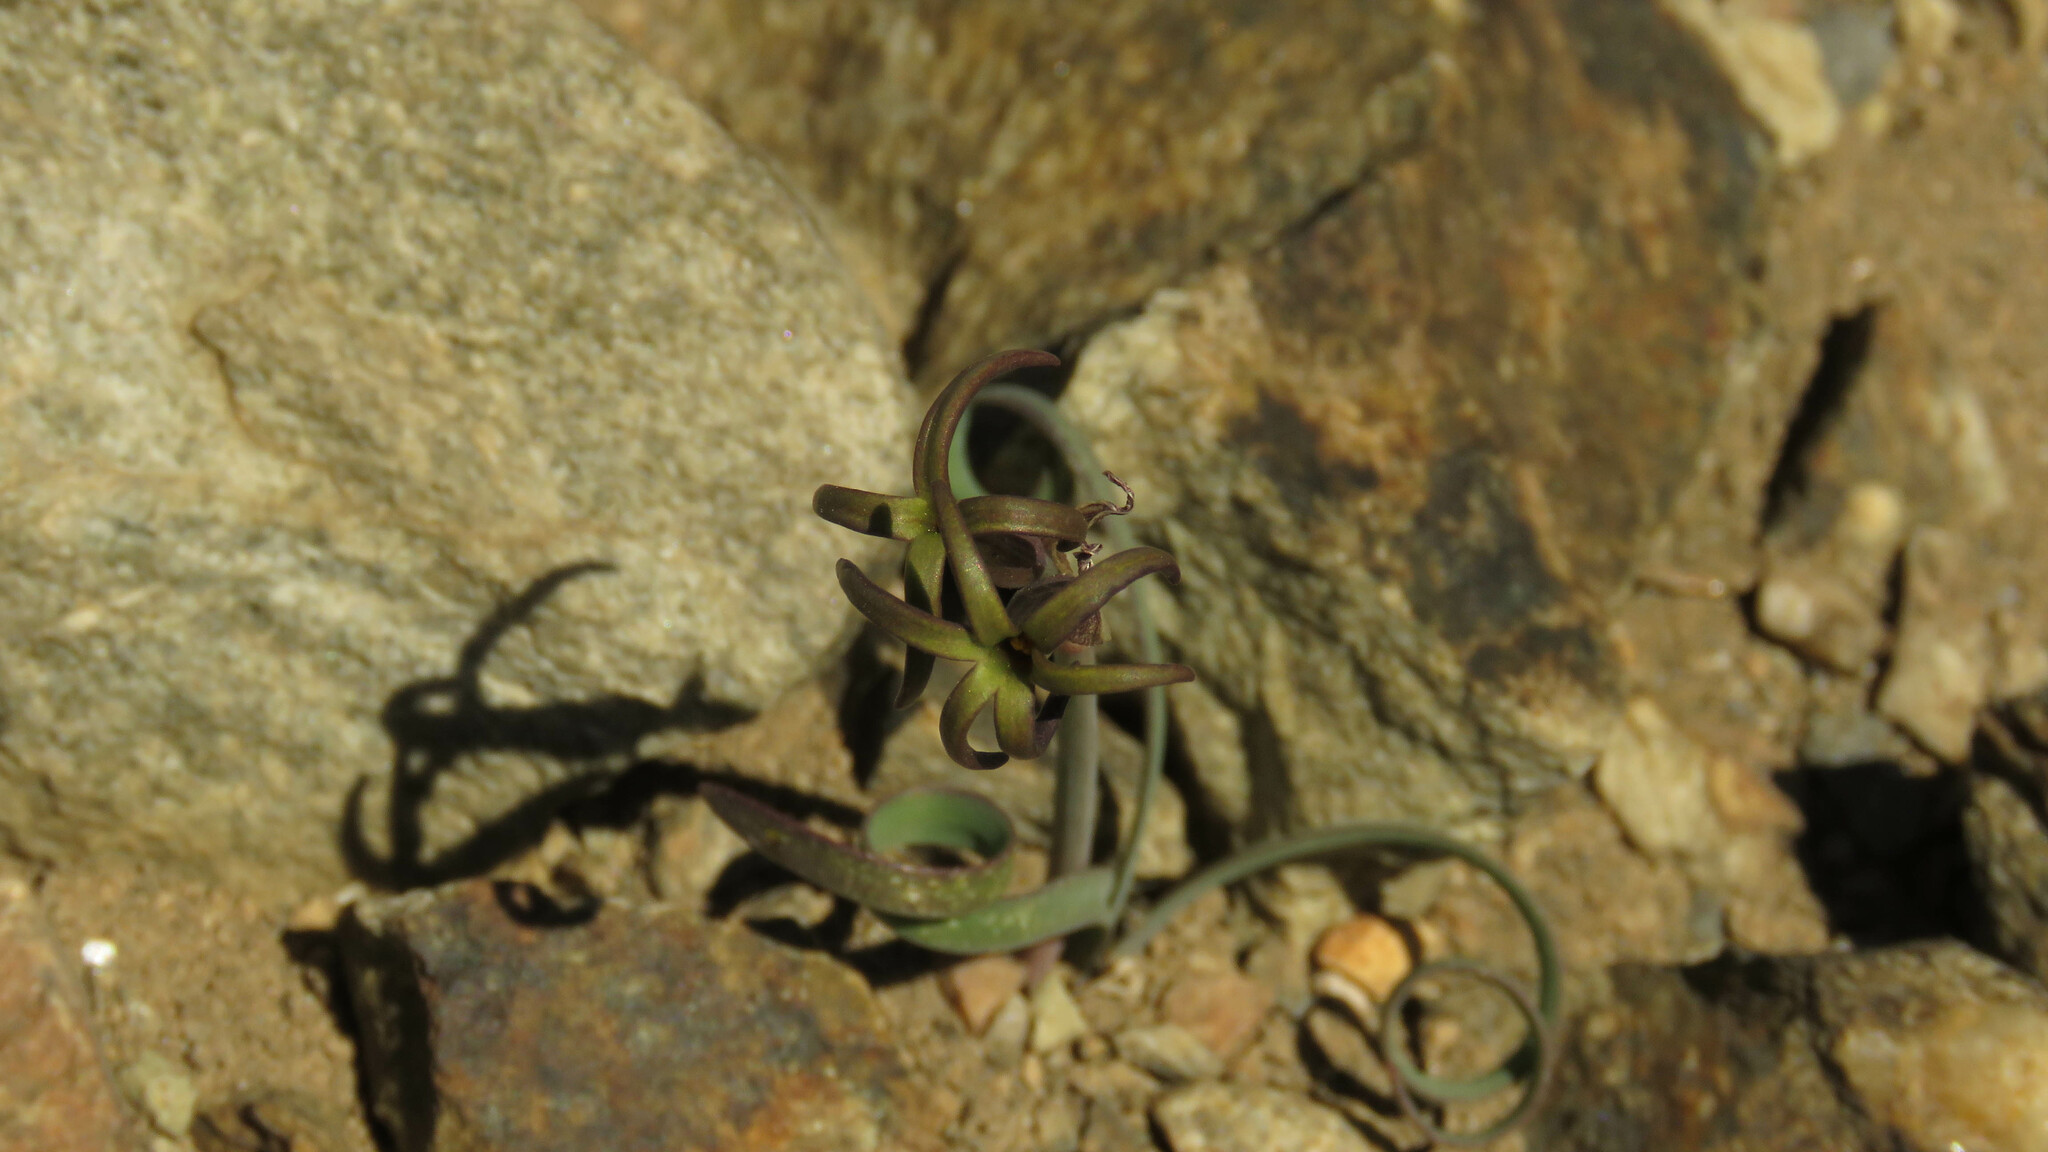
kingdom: Plantae
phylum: Tracheophyta
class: Liliopsida
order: Asparagales
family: Amaryllidaceae
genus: Tristagma
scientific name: Tristagma nivale
